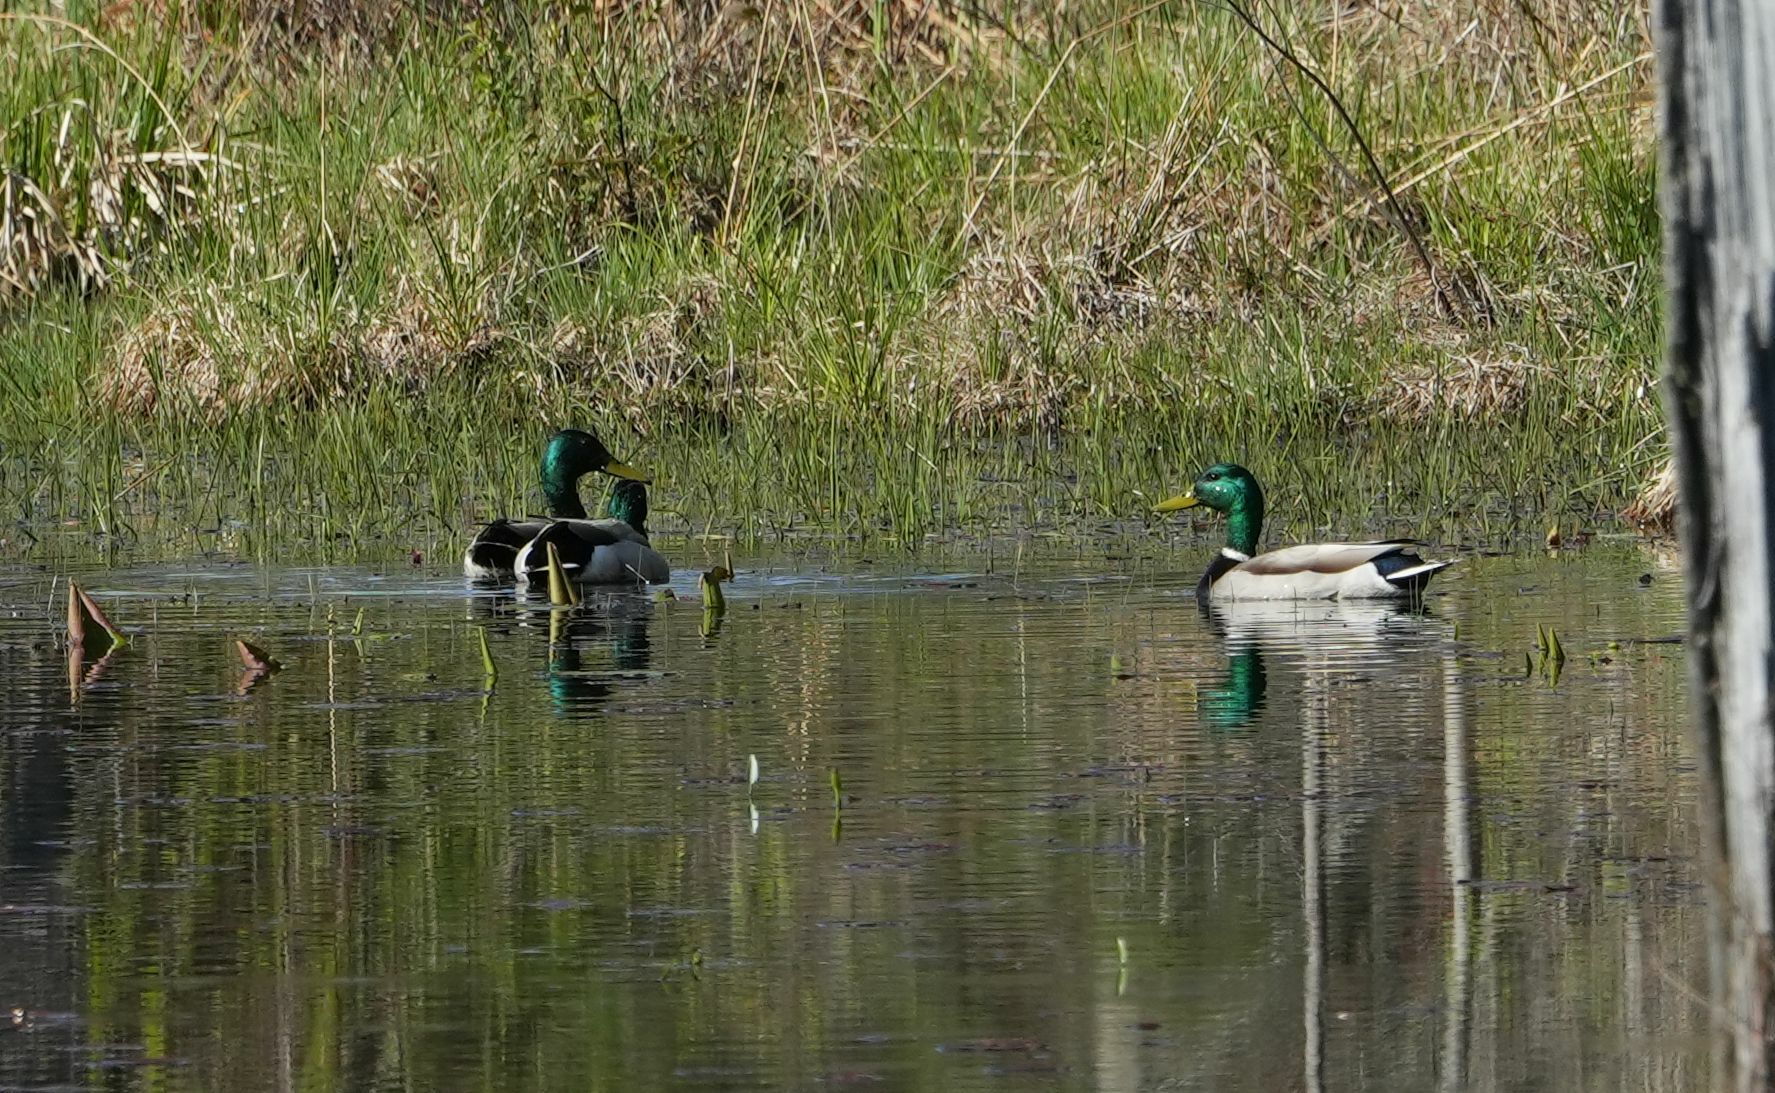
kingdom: Animalia
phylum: Chordata
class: Aves
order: Anseriformes
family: Anatidae
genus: Anas
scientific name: Anas platyrhynchos
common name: Mallard
